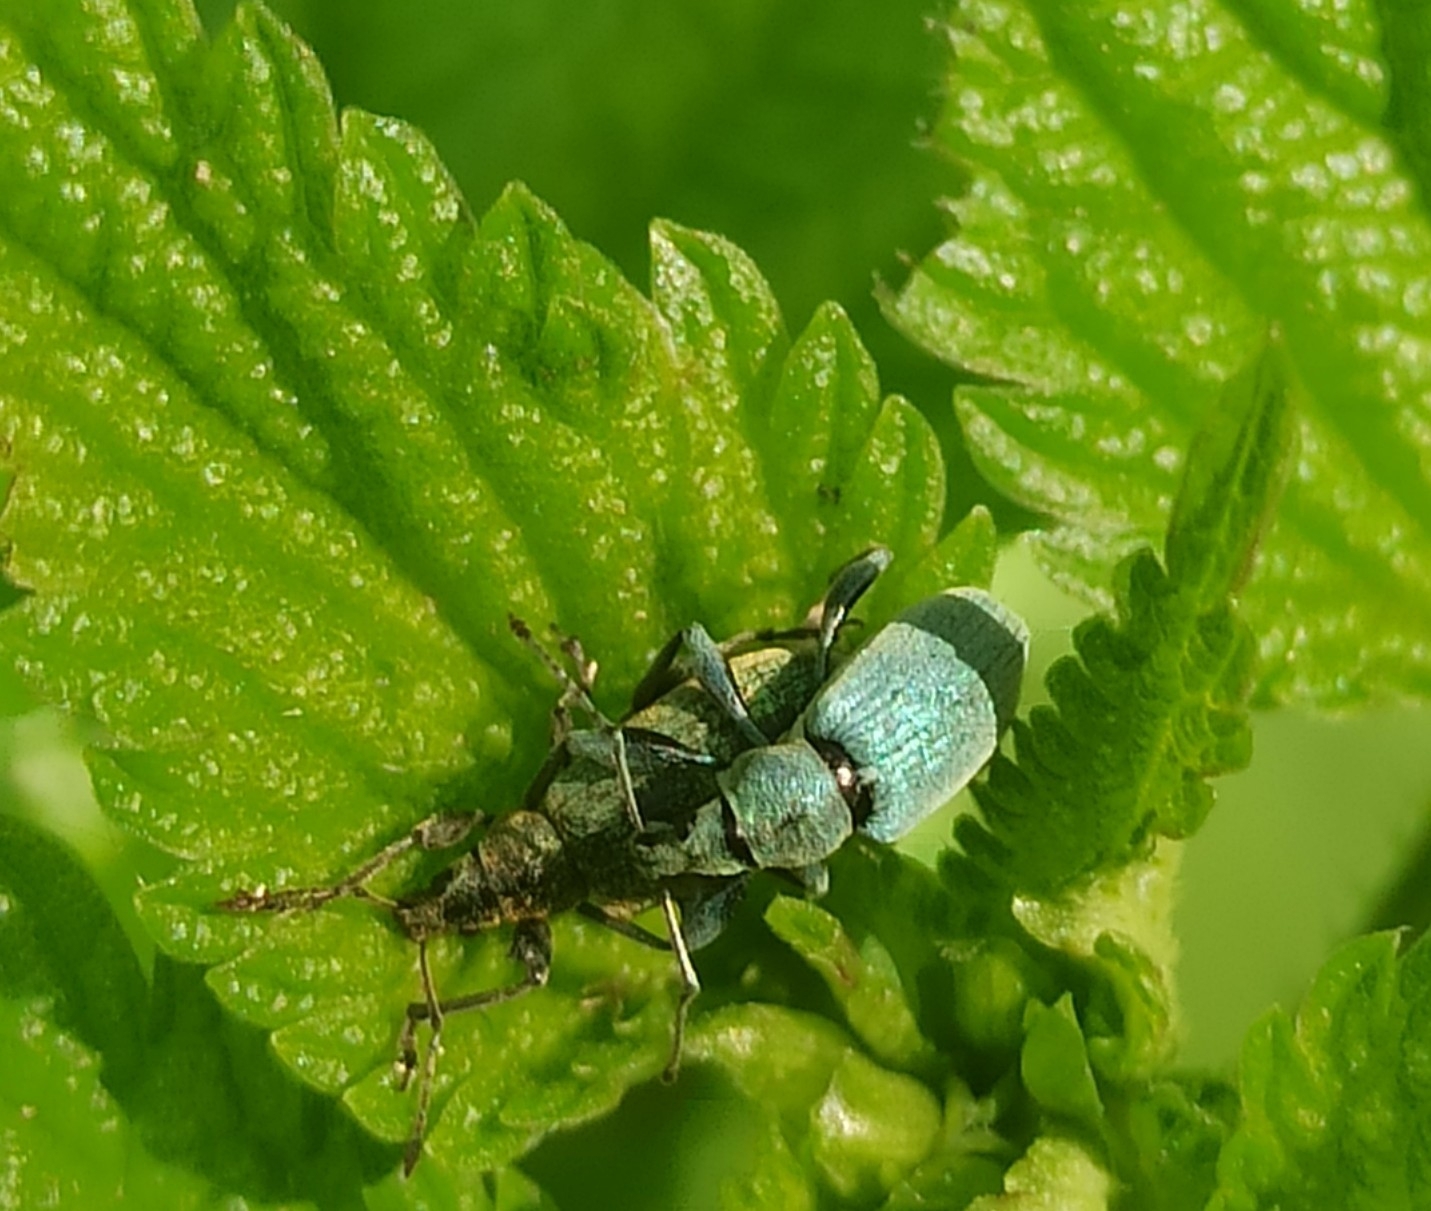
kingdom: Animalia
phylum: Arthropoda
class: Insecta
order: Coleoptera
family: Curculionidae
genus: Phyllobius
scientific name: Phyllobius pomaceus
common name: Green nettle weevil
